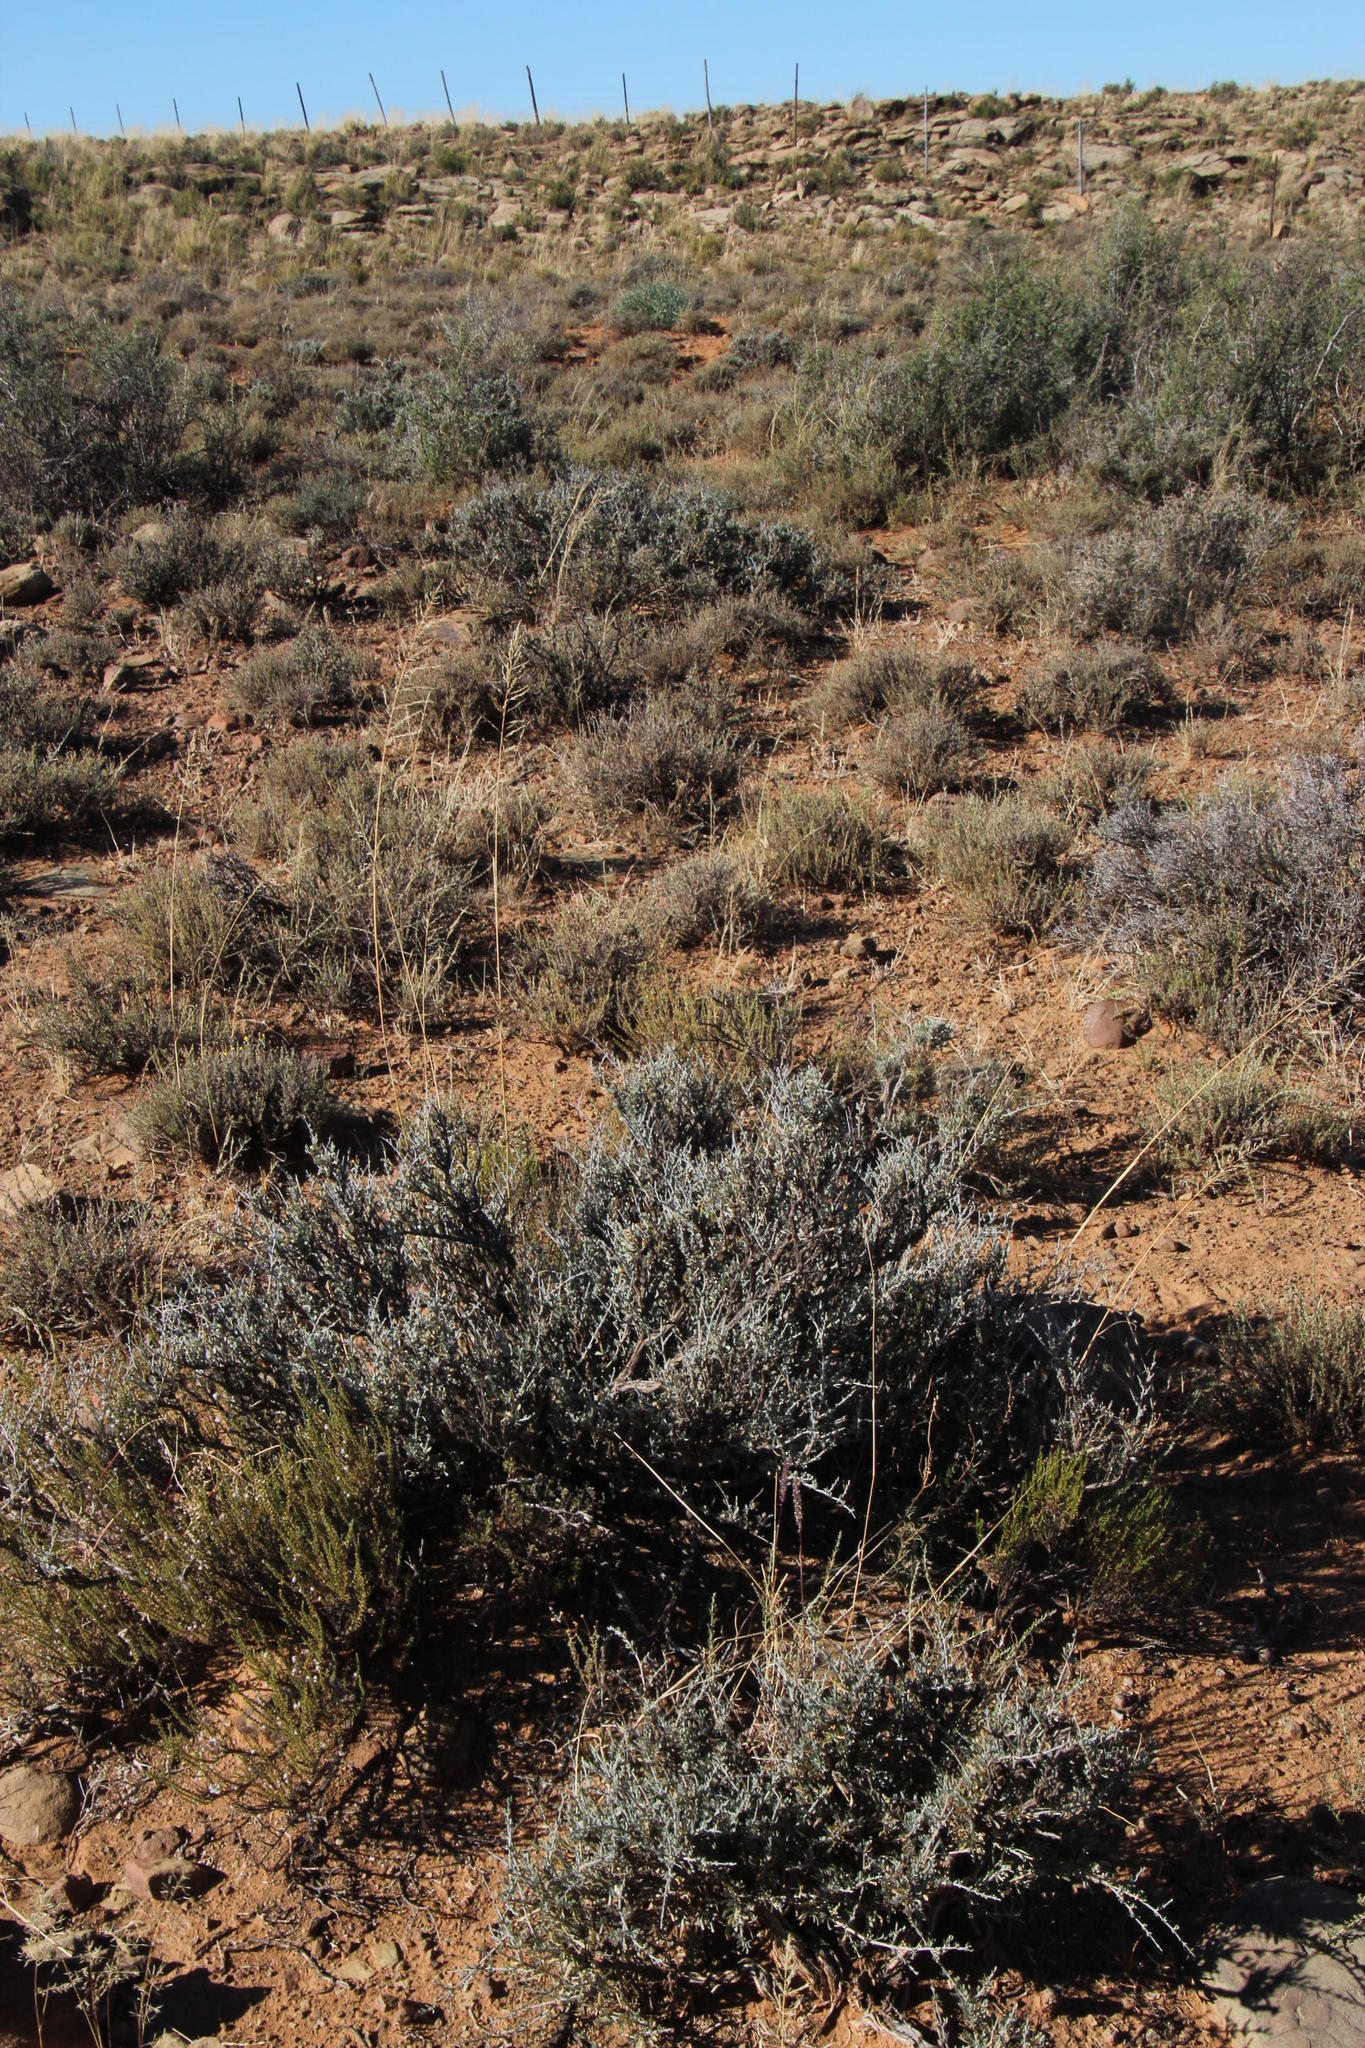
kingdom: Plantae
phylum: Tracheophyta
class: Liliopsida
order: Poales
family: Poaceae
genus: Eragrostis
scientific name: Eragrostis curvula
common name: African love-grass
